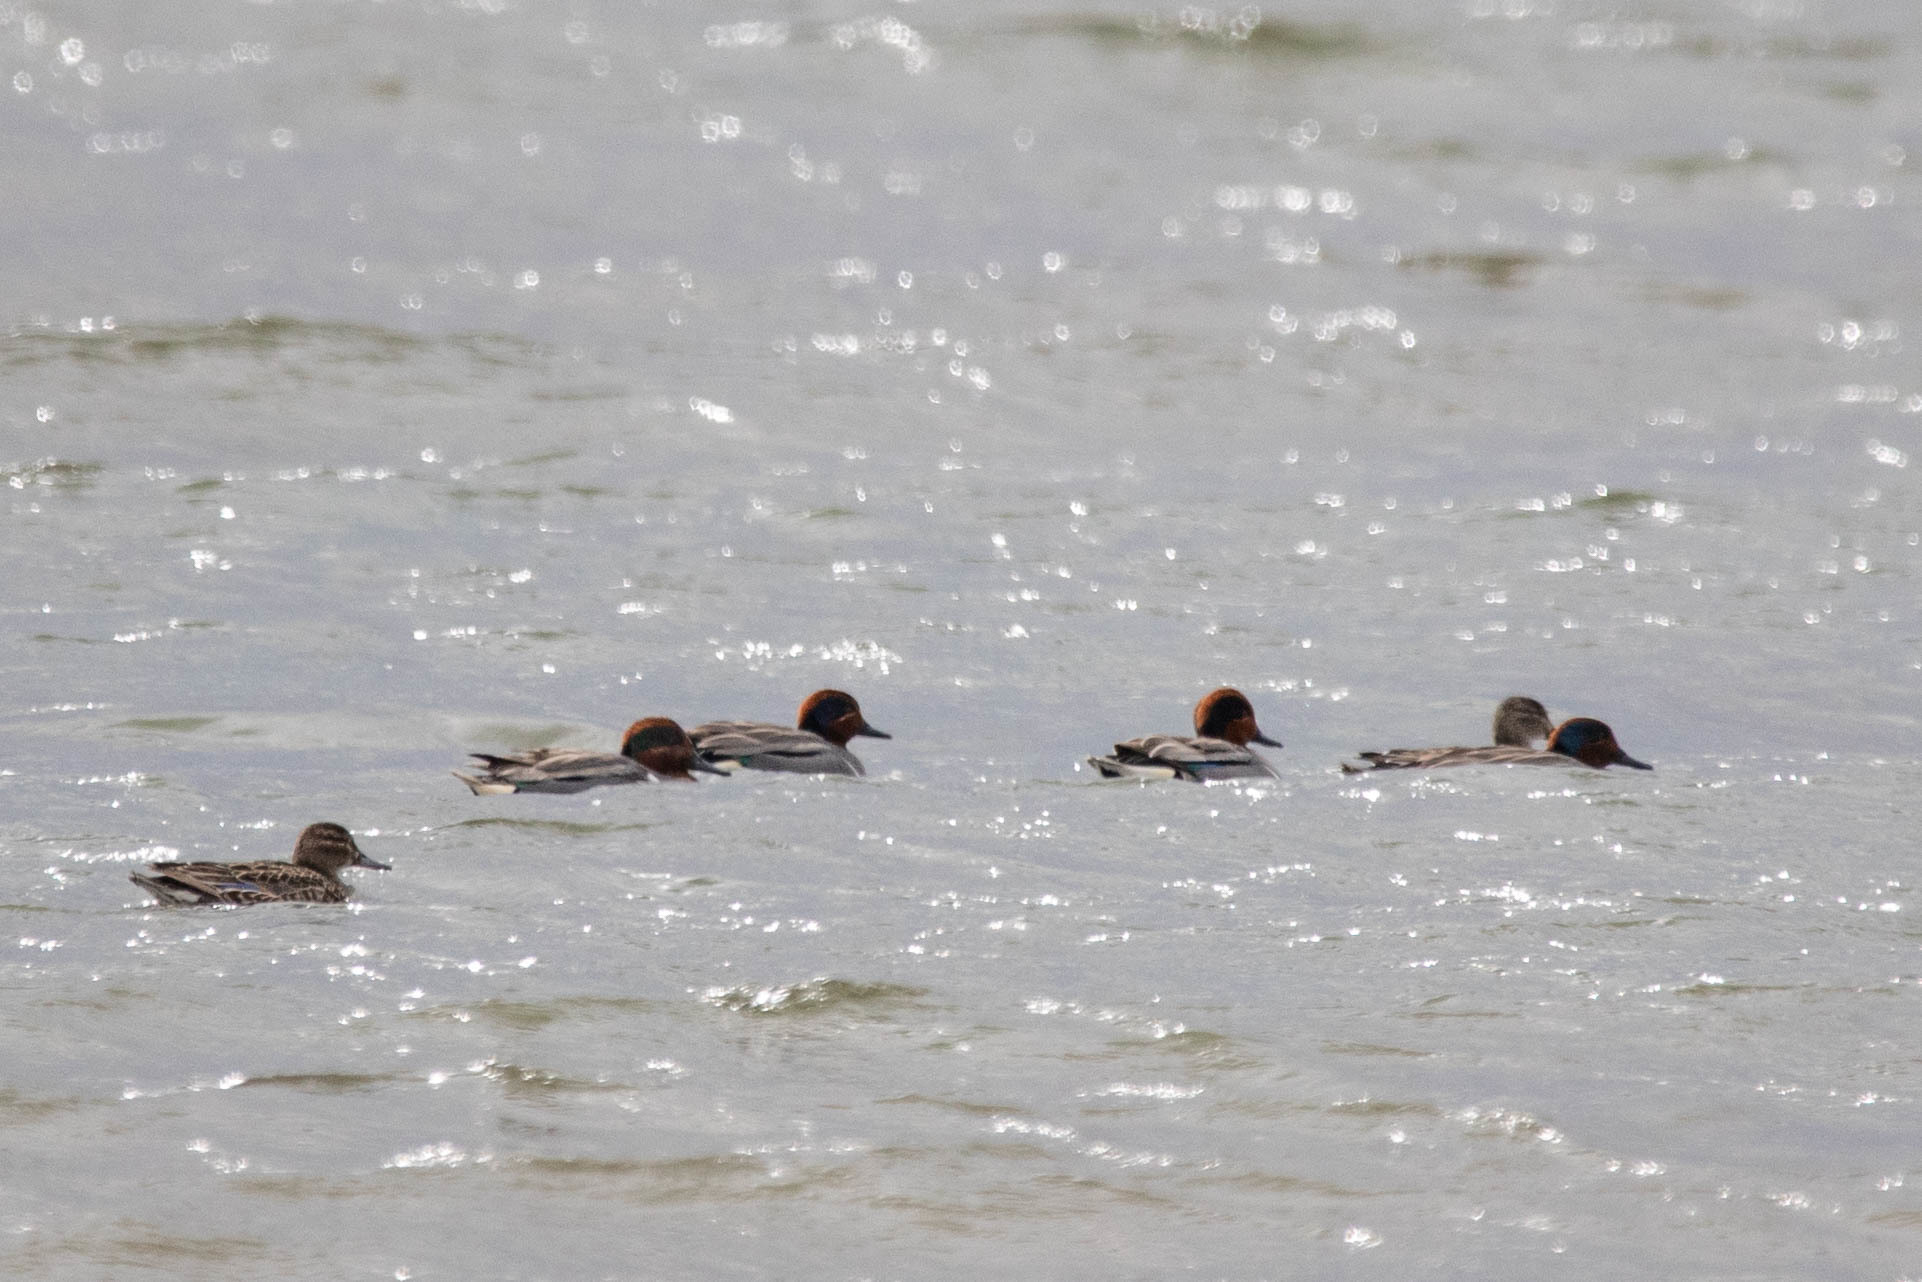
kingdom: Animalia
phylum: Chordata
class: Aves
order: Anseriformes
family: Anatidae
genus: Anas
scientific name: Anas carolinensis
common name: Green-winged teal
